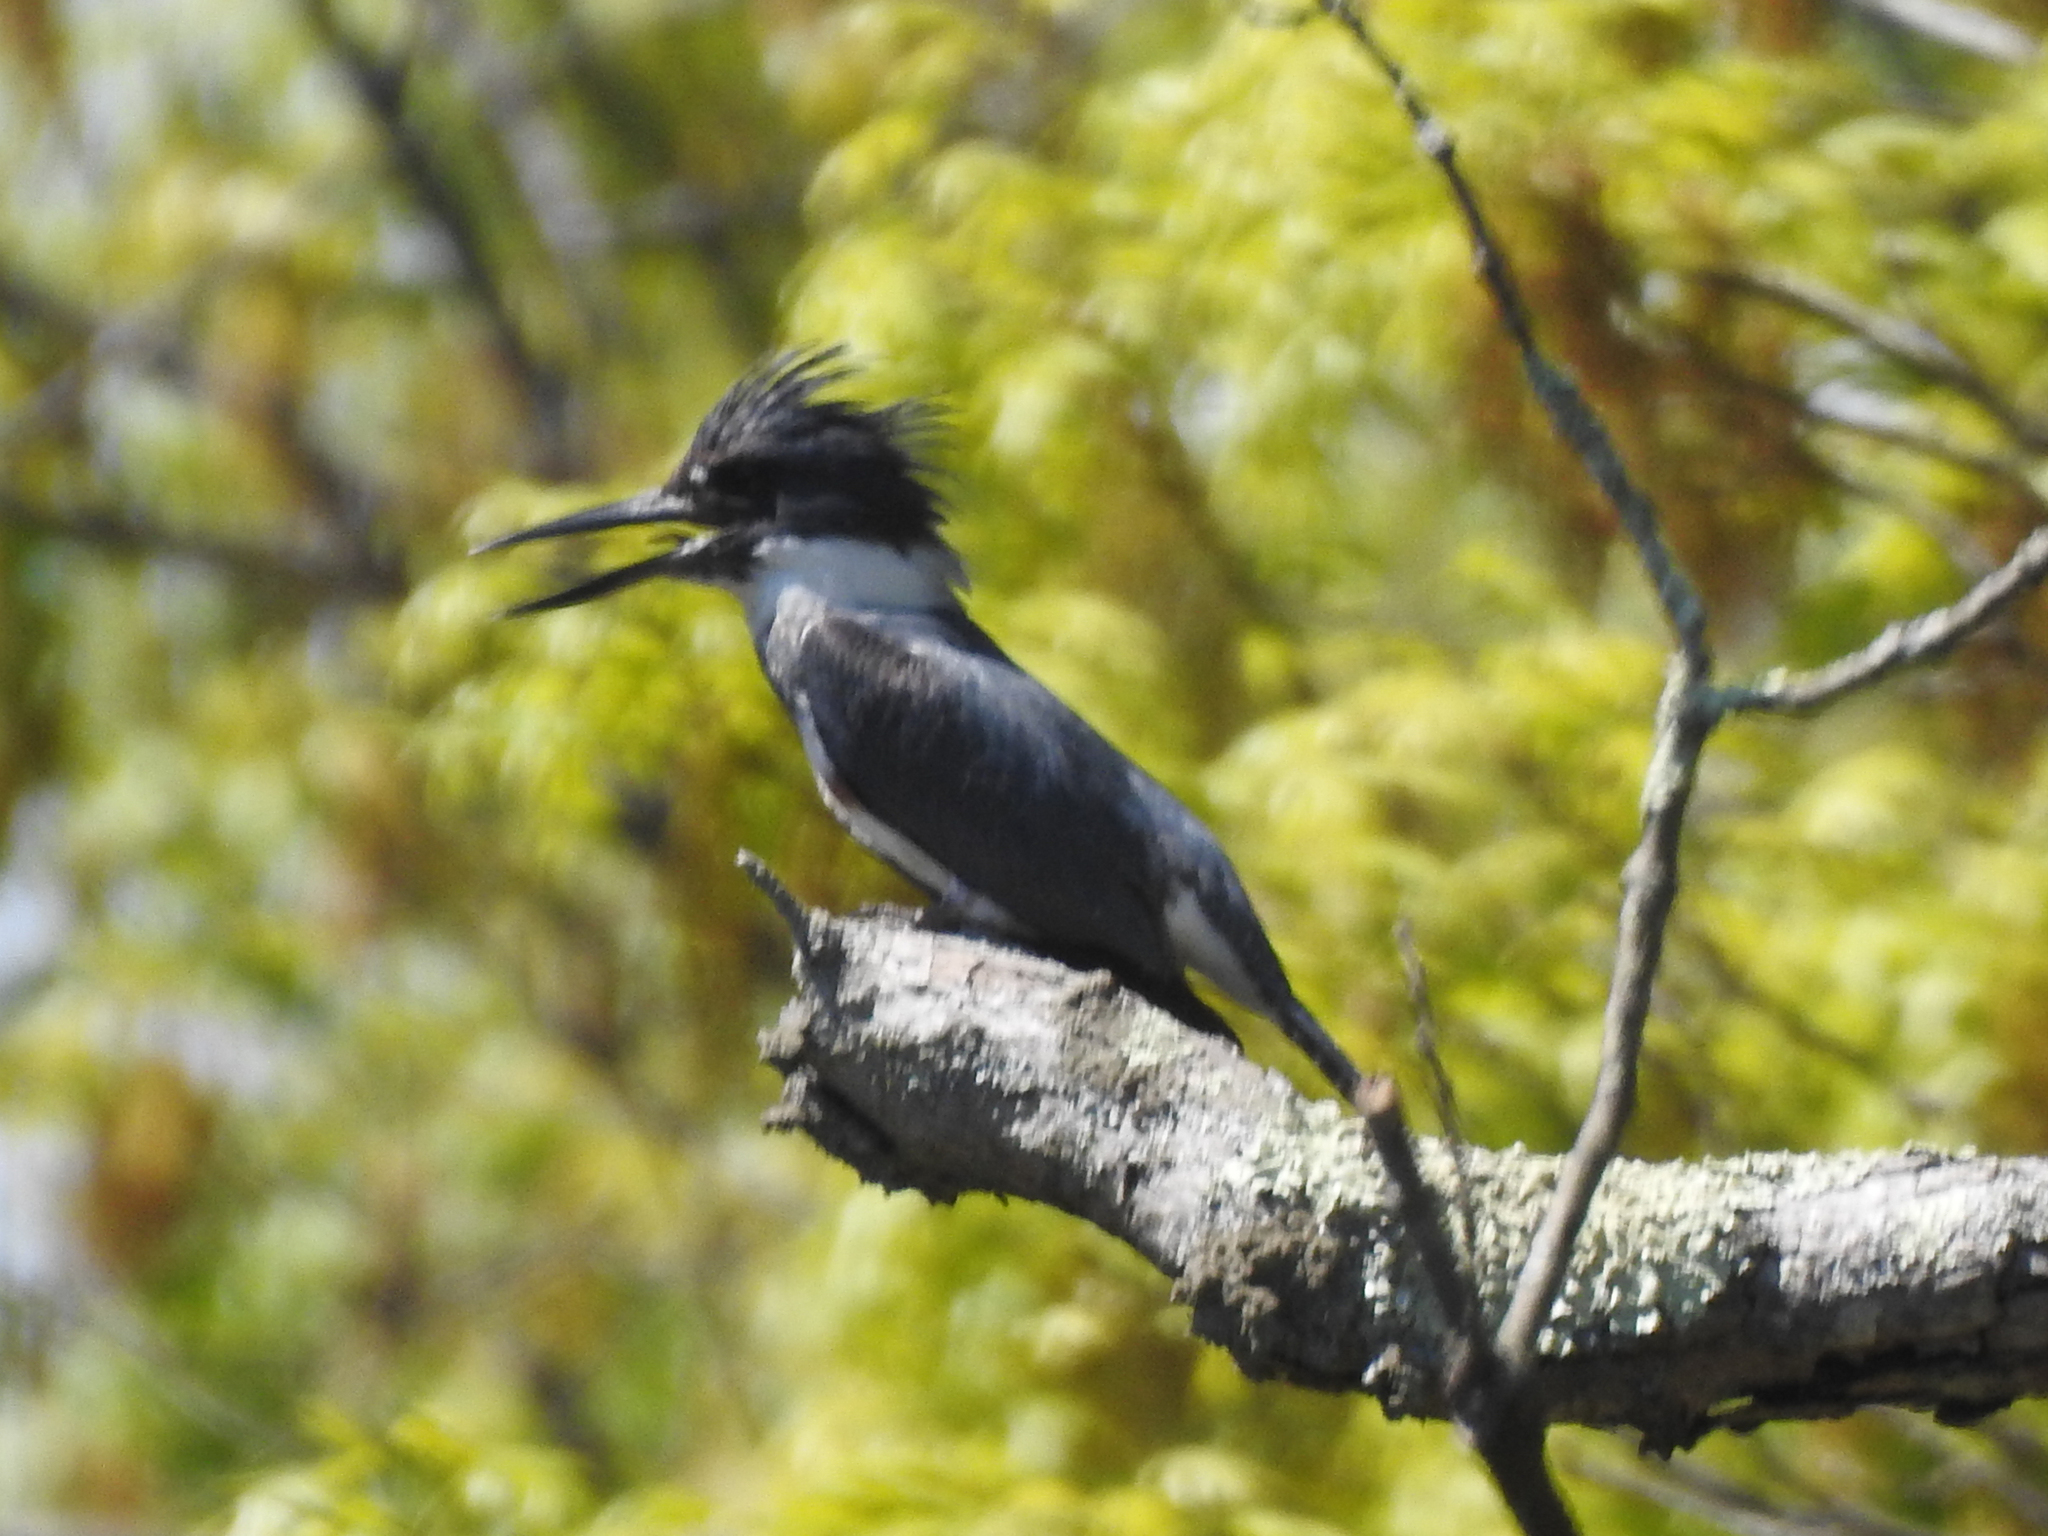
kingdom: Animalia
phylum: Chordata
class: Aves
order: Coraciiformes
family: Alcedinidae
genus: Megaceryle
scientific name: Megaceryle alcyon
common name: Belted kingfisher
